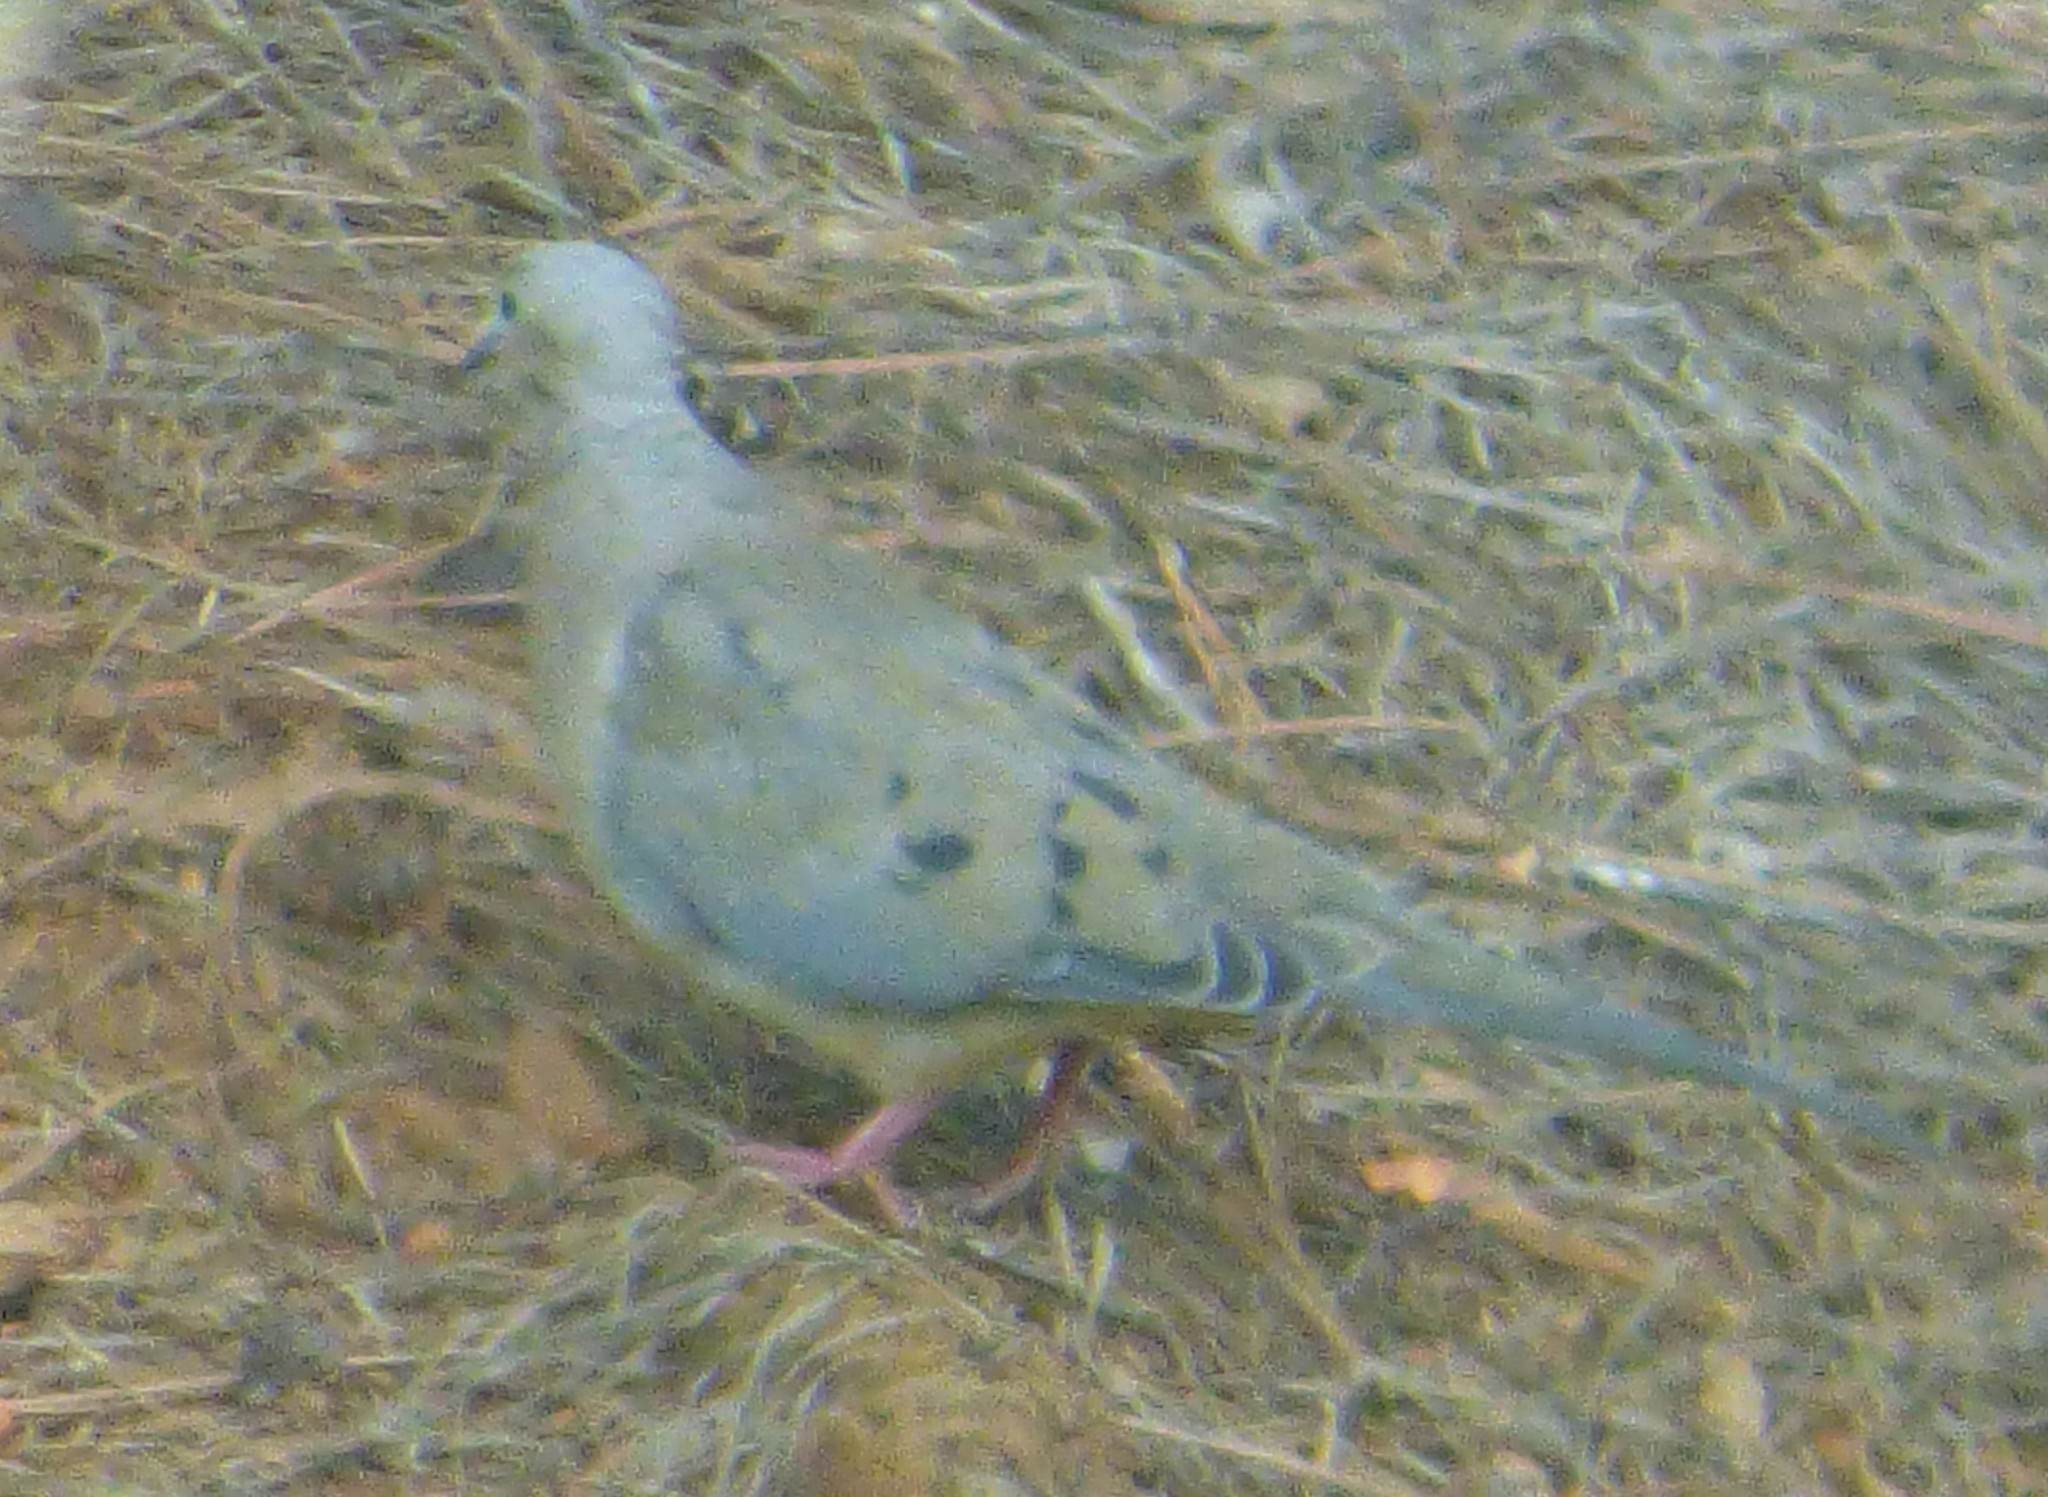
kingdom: Animalia
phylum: Chordata
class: Aves
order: Columbiformes
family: Columbidae
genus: Zenaida
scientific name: Zenaida macroura
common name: Mourning dove
